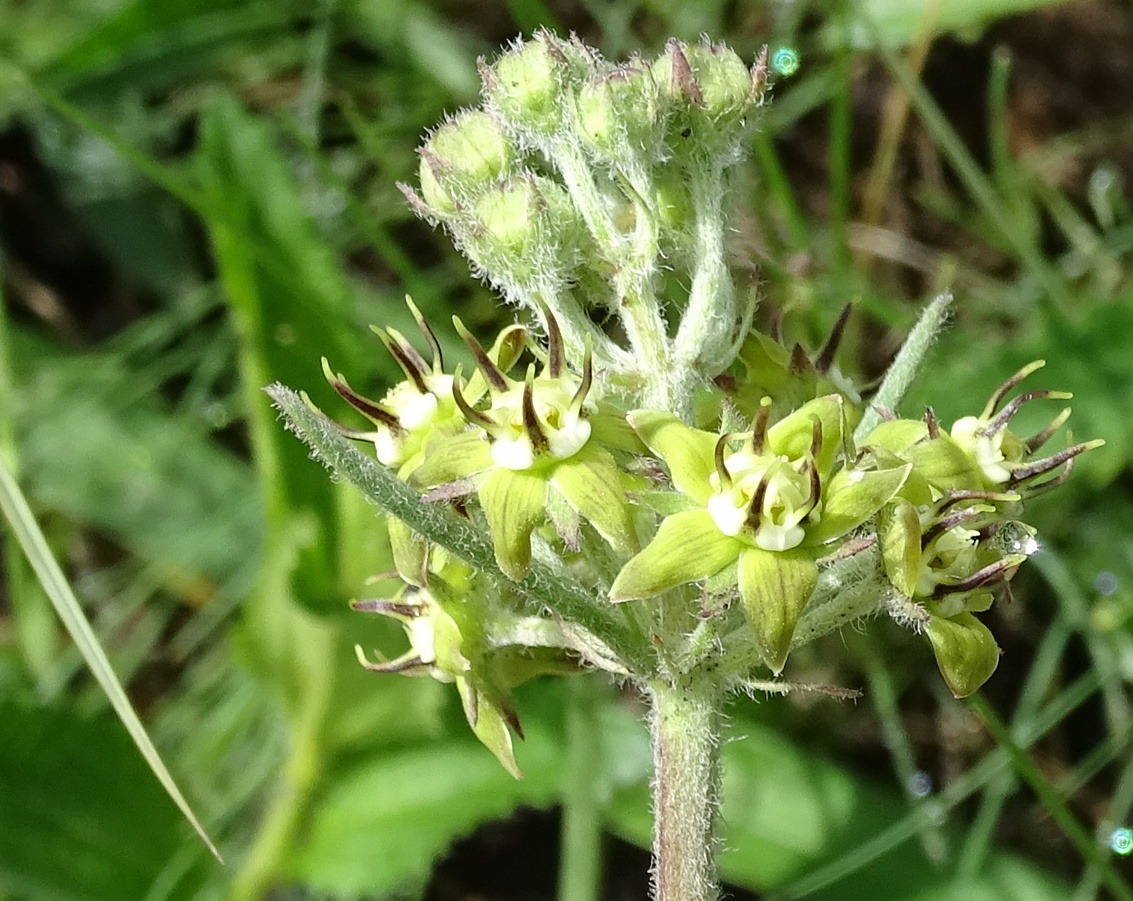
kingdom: Plantae
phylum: Tracheophyta
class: Magnoliopsida
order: Gentianales
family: Apocynaceae
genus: Miraglossum
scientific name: Miraglossum pilosum
